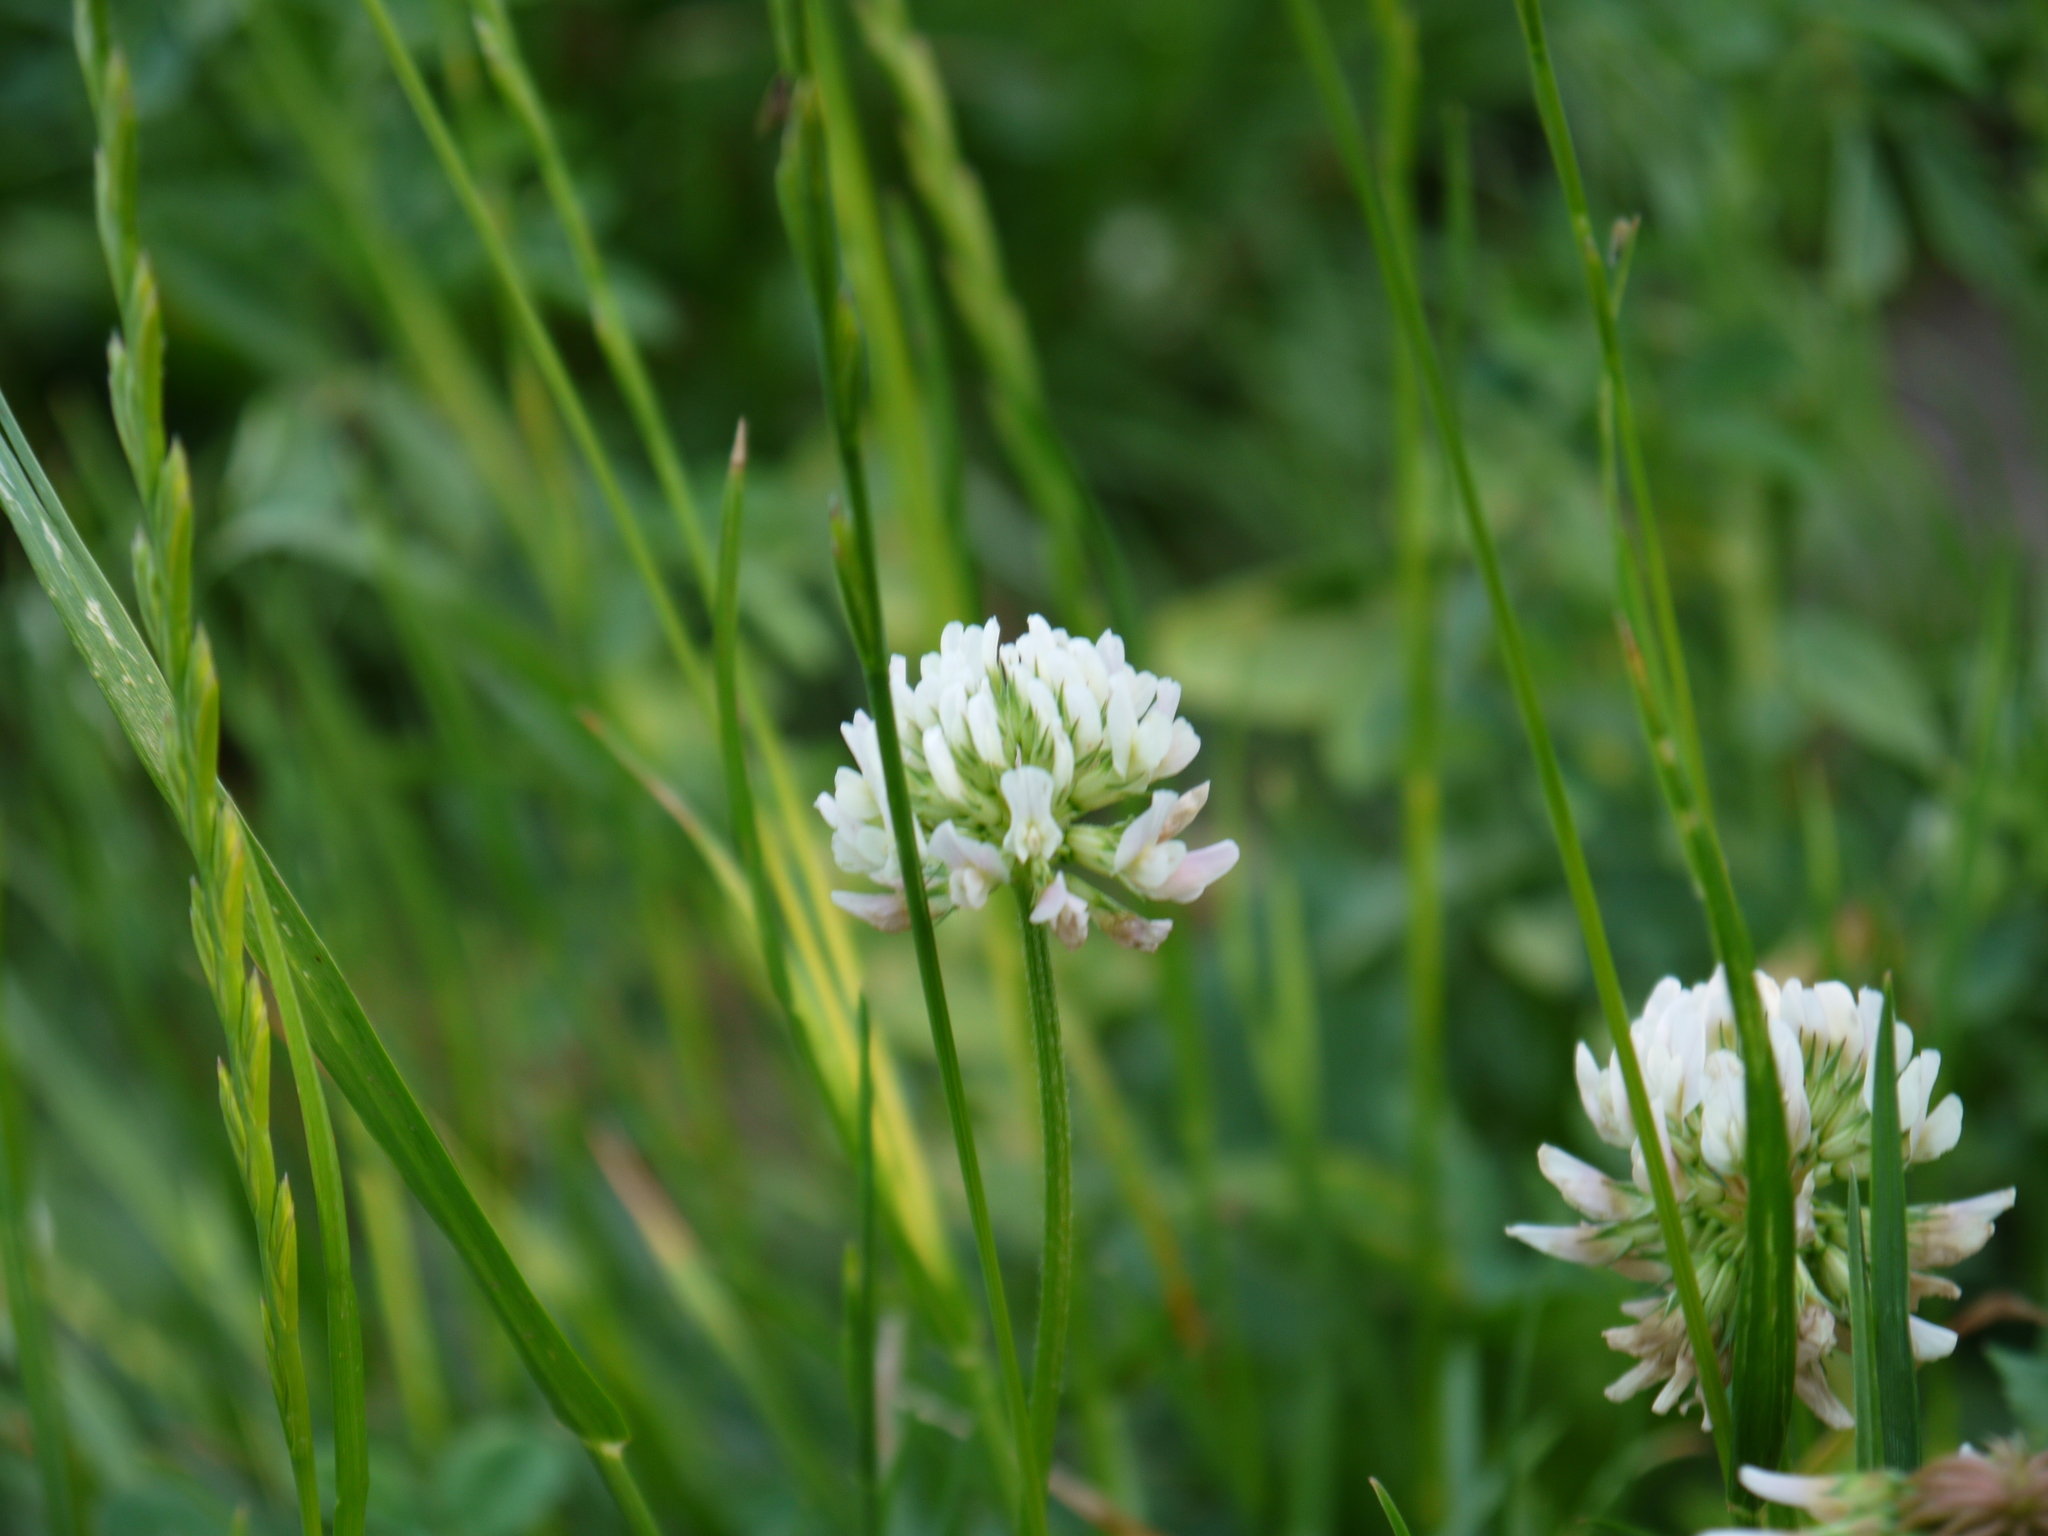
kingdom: Plantae
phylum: Tracheophyta
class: Magnoliopsida
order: Fabales
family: Fabaceae
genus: Trifolium
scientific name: Trifolium repens
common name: White clover
